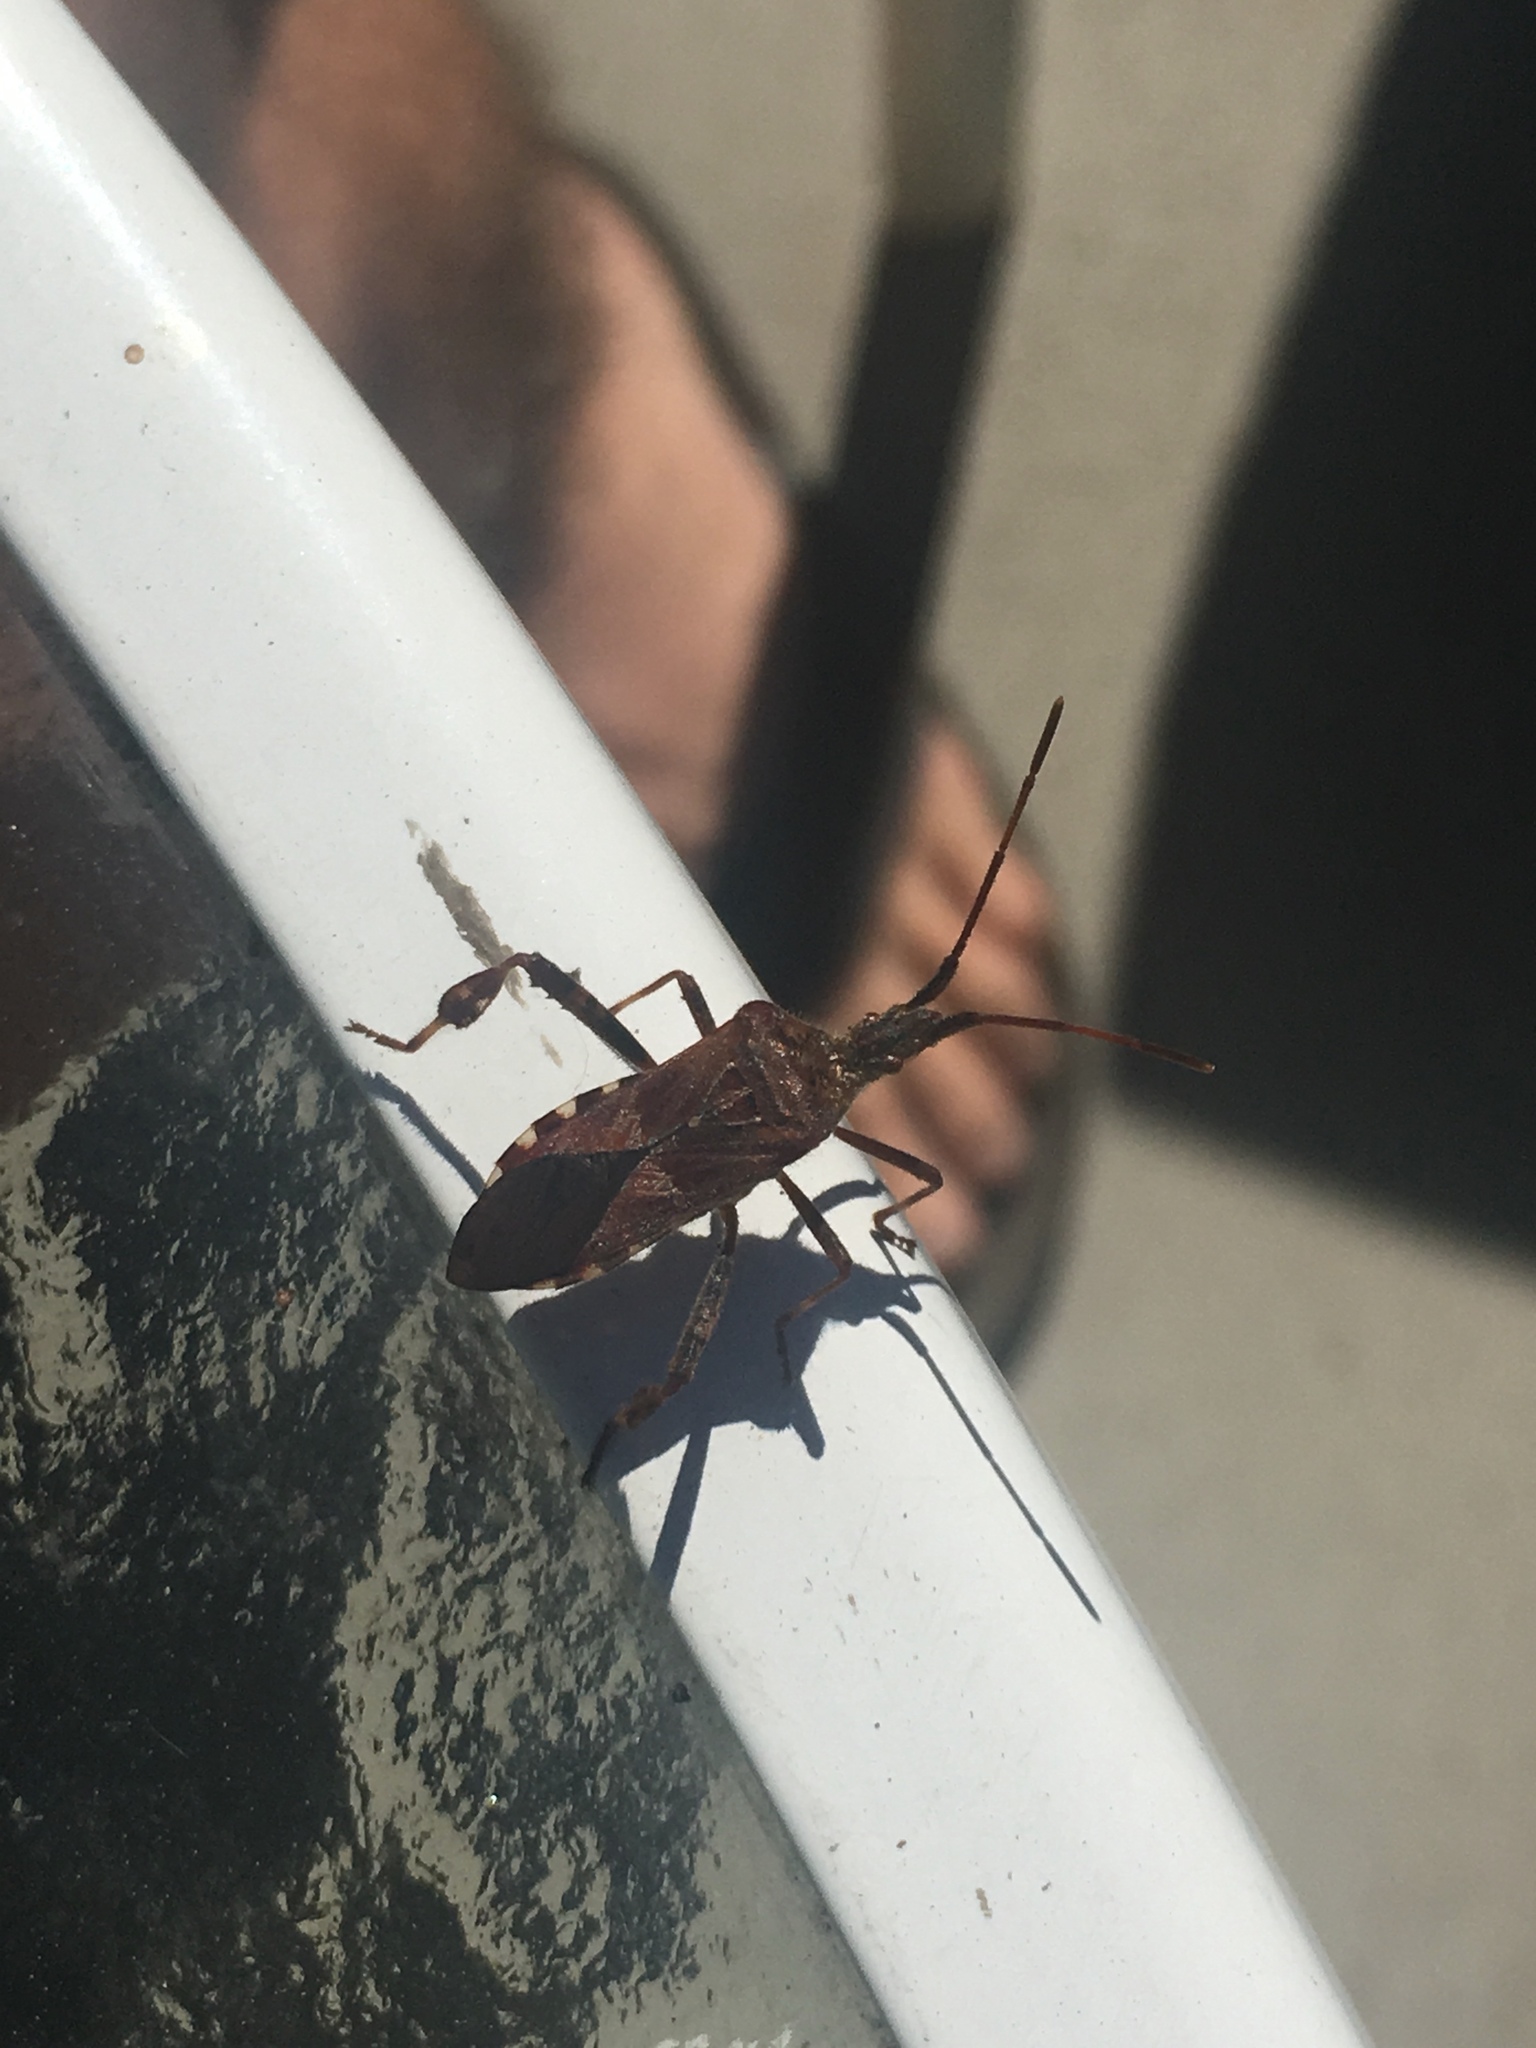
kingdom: Animalia
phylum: Arthropoda
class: Insecta
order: Hemiptera
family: Coreidae
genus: Leptoglossus
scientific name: Leptoglossus occidentalis
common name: Western conifer-seed bug
